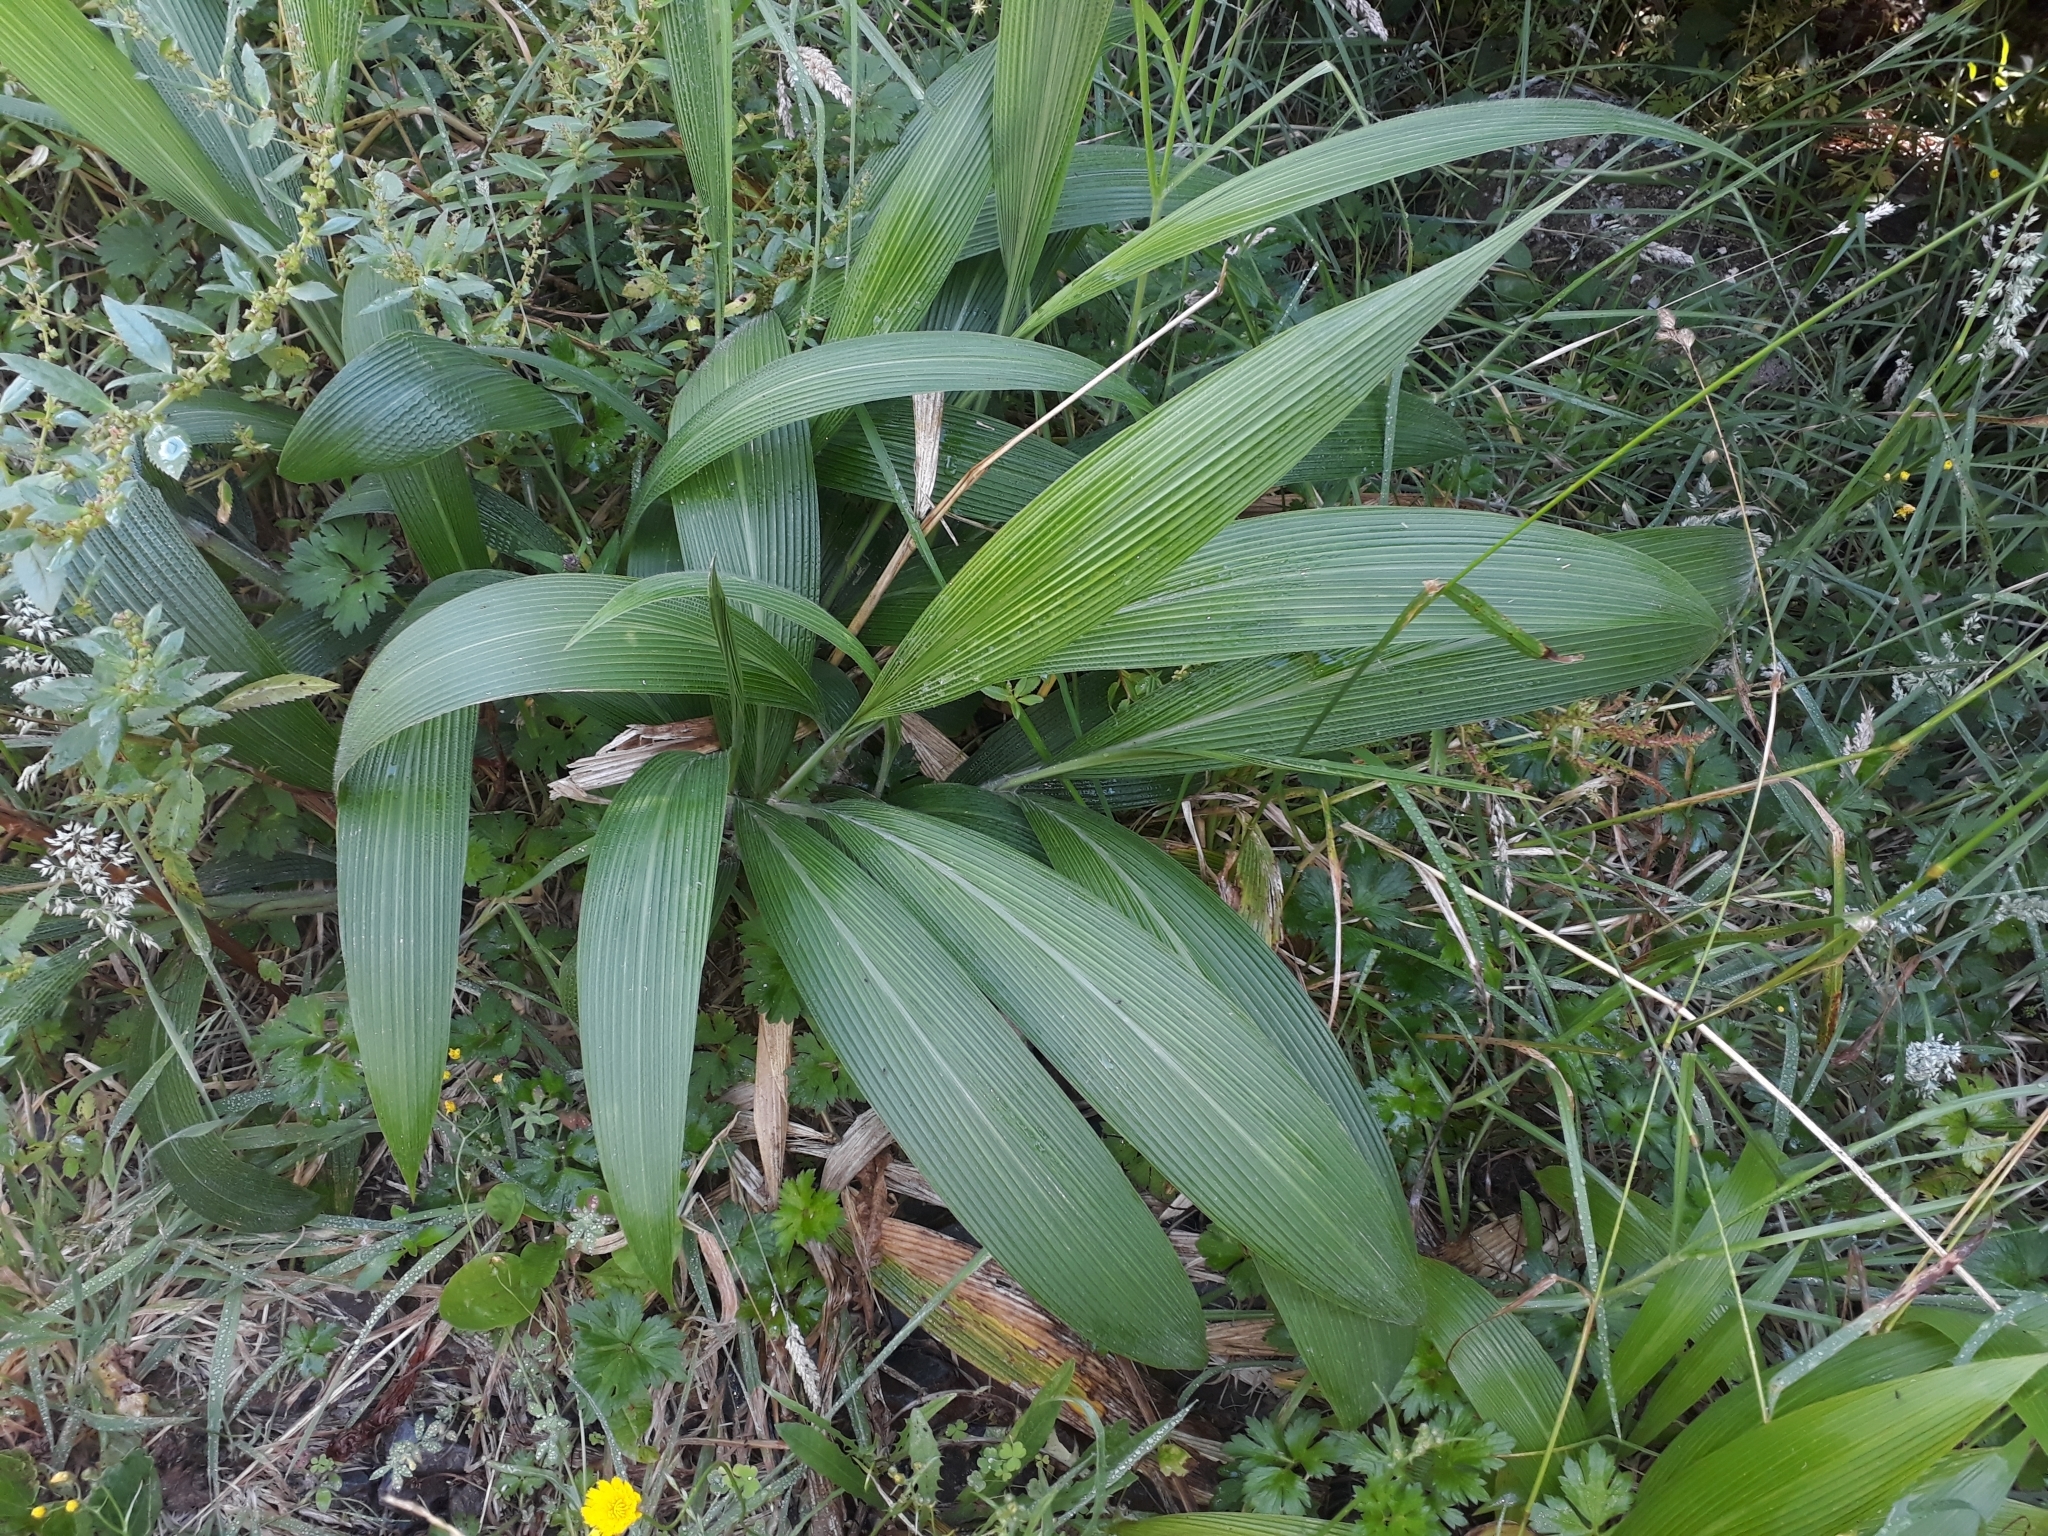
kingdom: Plantae
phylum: Tracheophyta
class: Liliopsida
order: Poales
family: Poaceae
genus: Setaria
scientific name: Setaria palmifolia
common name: Broadleaved bristlegrass
